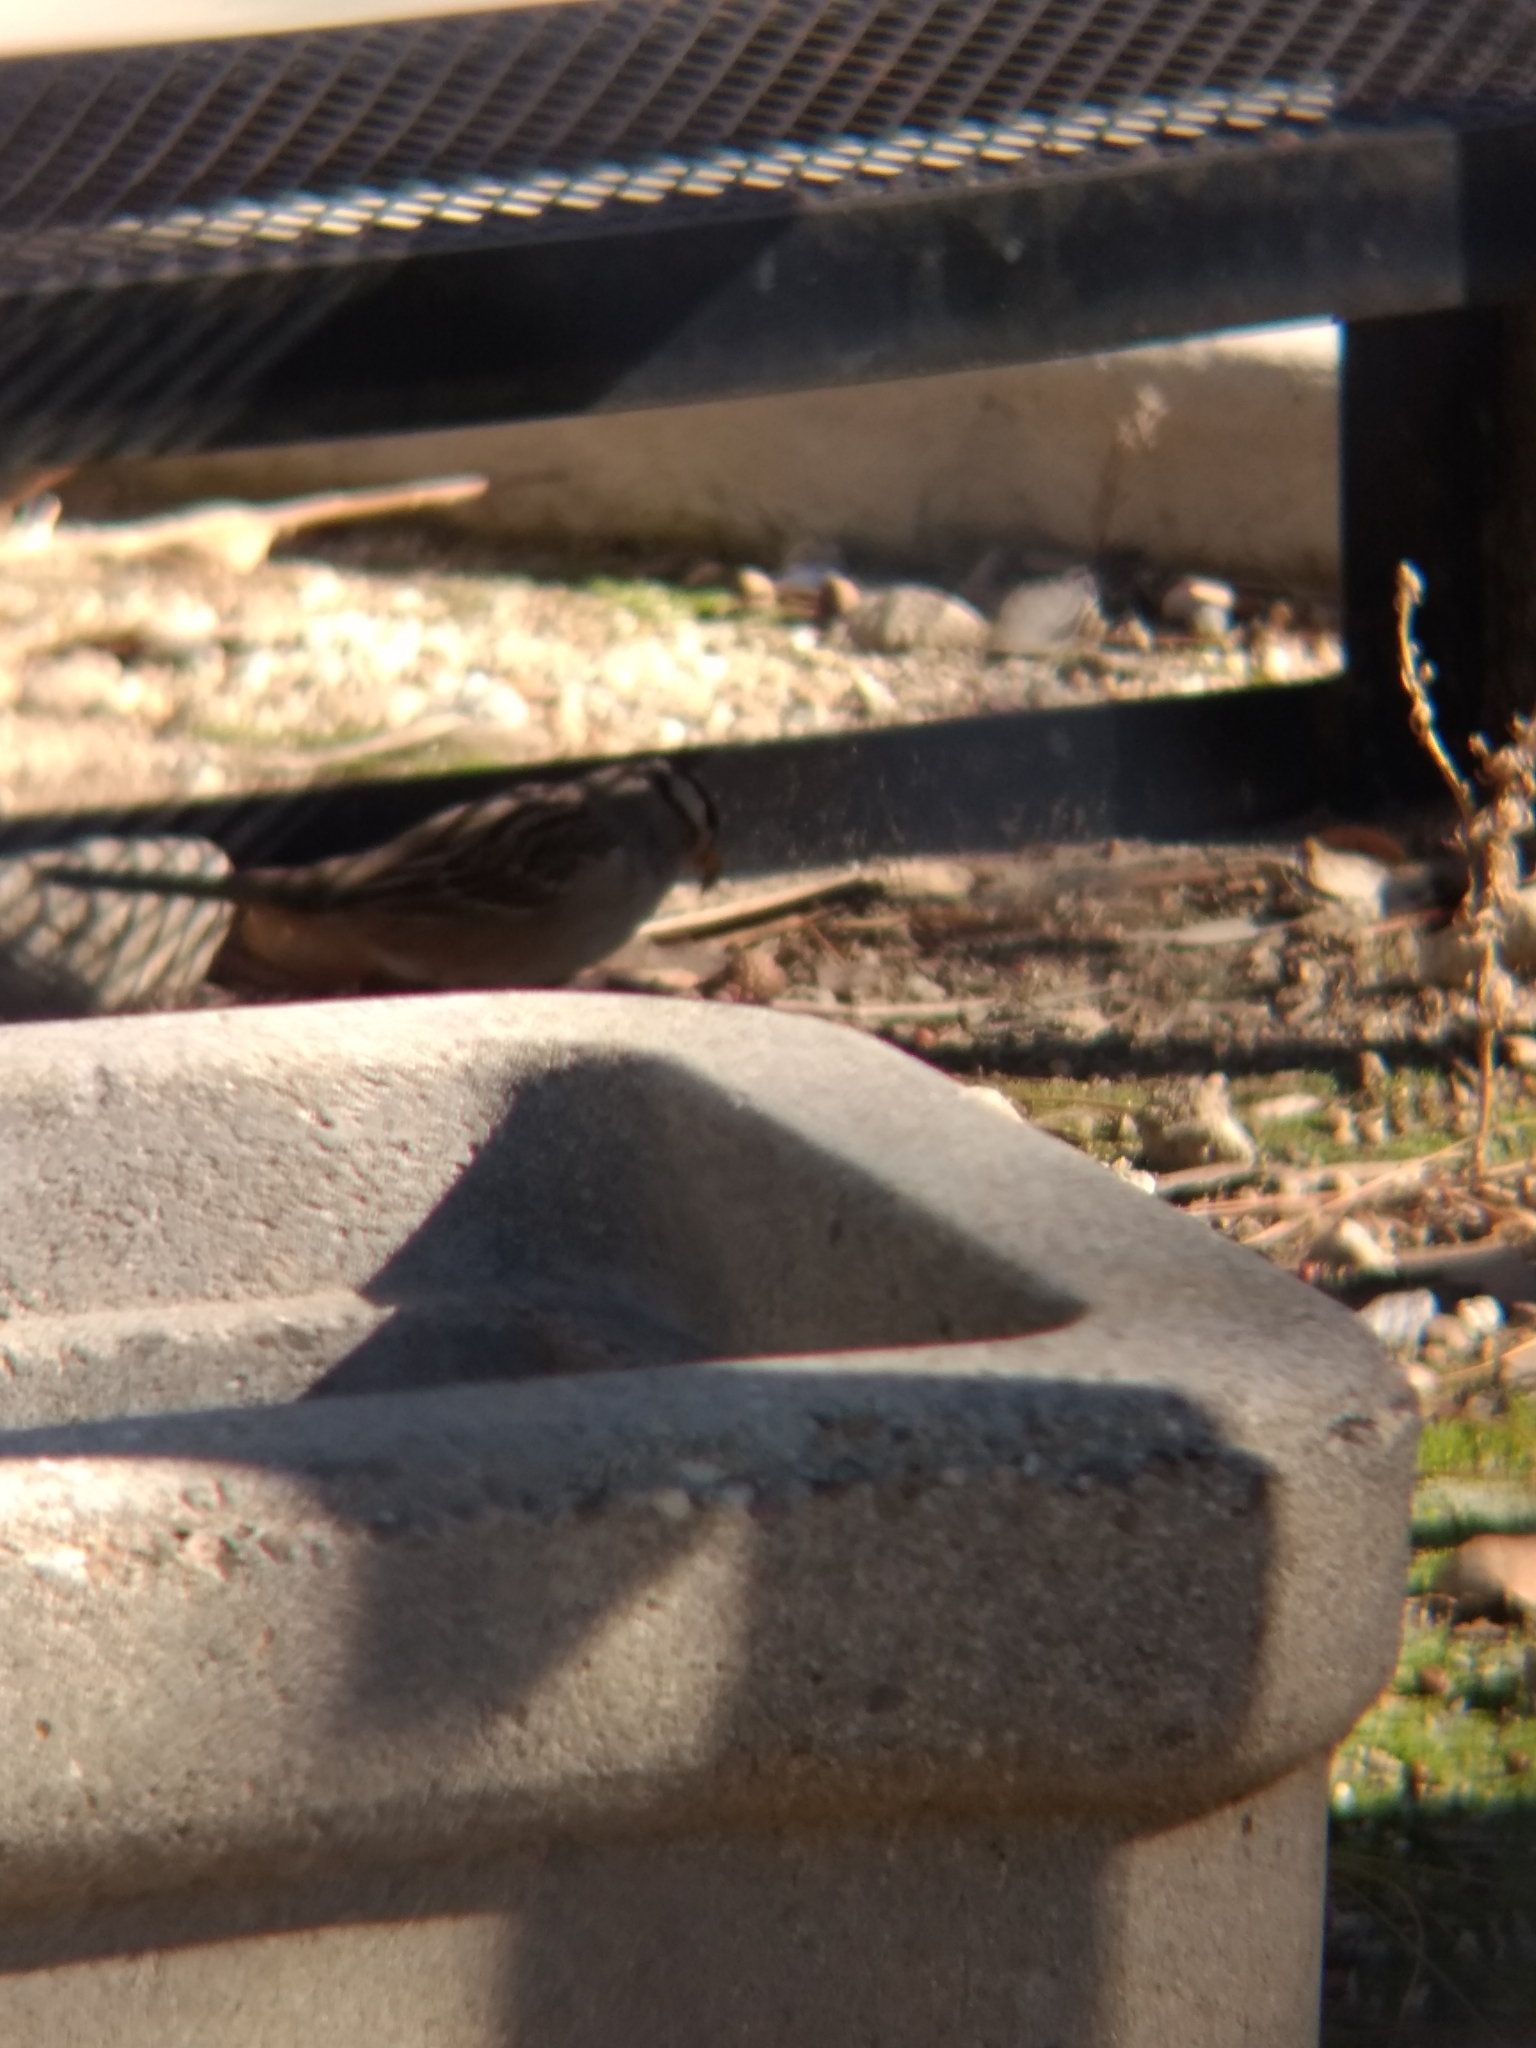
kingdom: Animalia
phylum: Chordata
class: Aves
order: Passeriformes
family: Passerellidae
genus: Zonotrichia
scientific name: Zonotrichia leucophrys
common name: White-crowned sparrow
